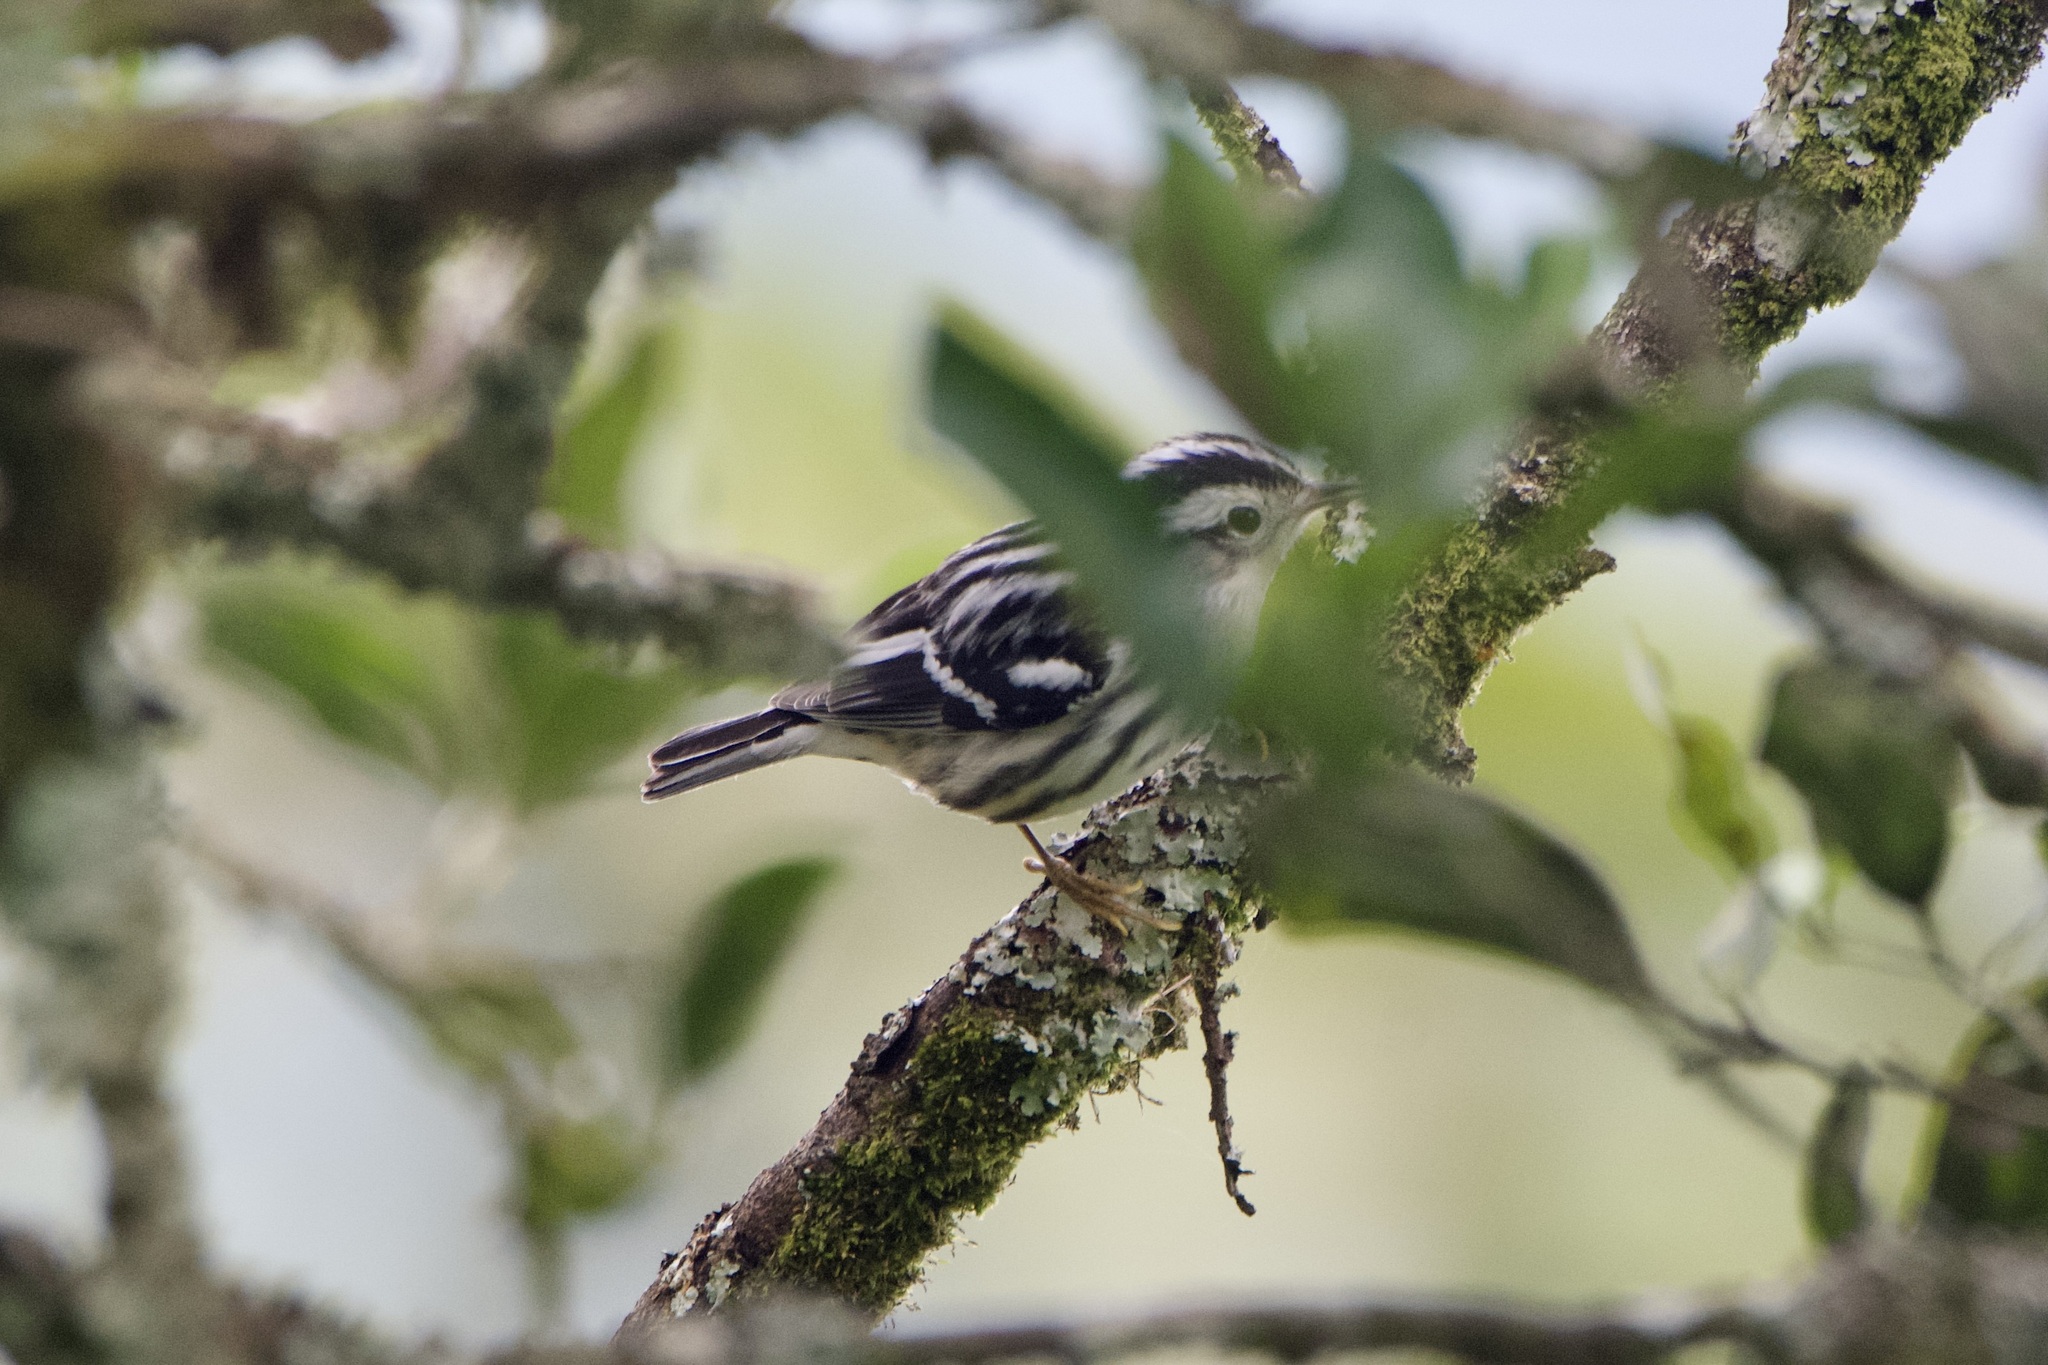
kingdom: Animalia
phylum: Chordata
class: Aves
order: Passeriformes
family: Parulidae
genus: Mniotilta
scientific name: Mniotilta varia
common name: Black-and-white warbler
